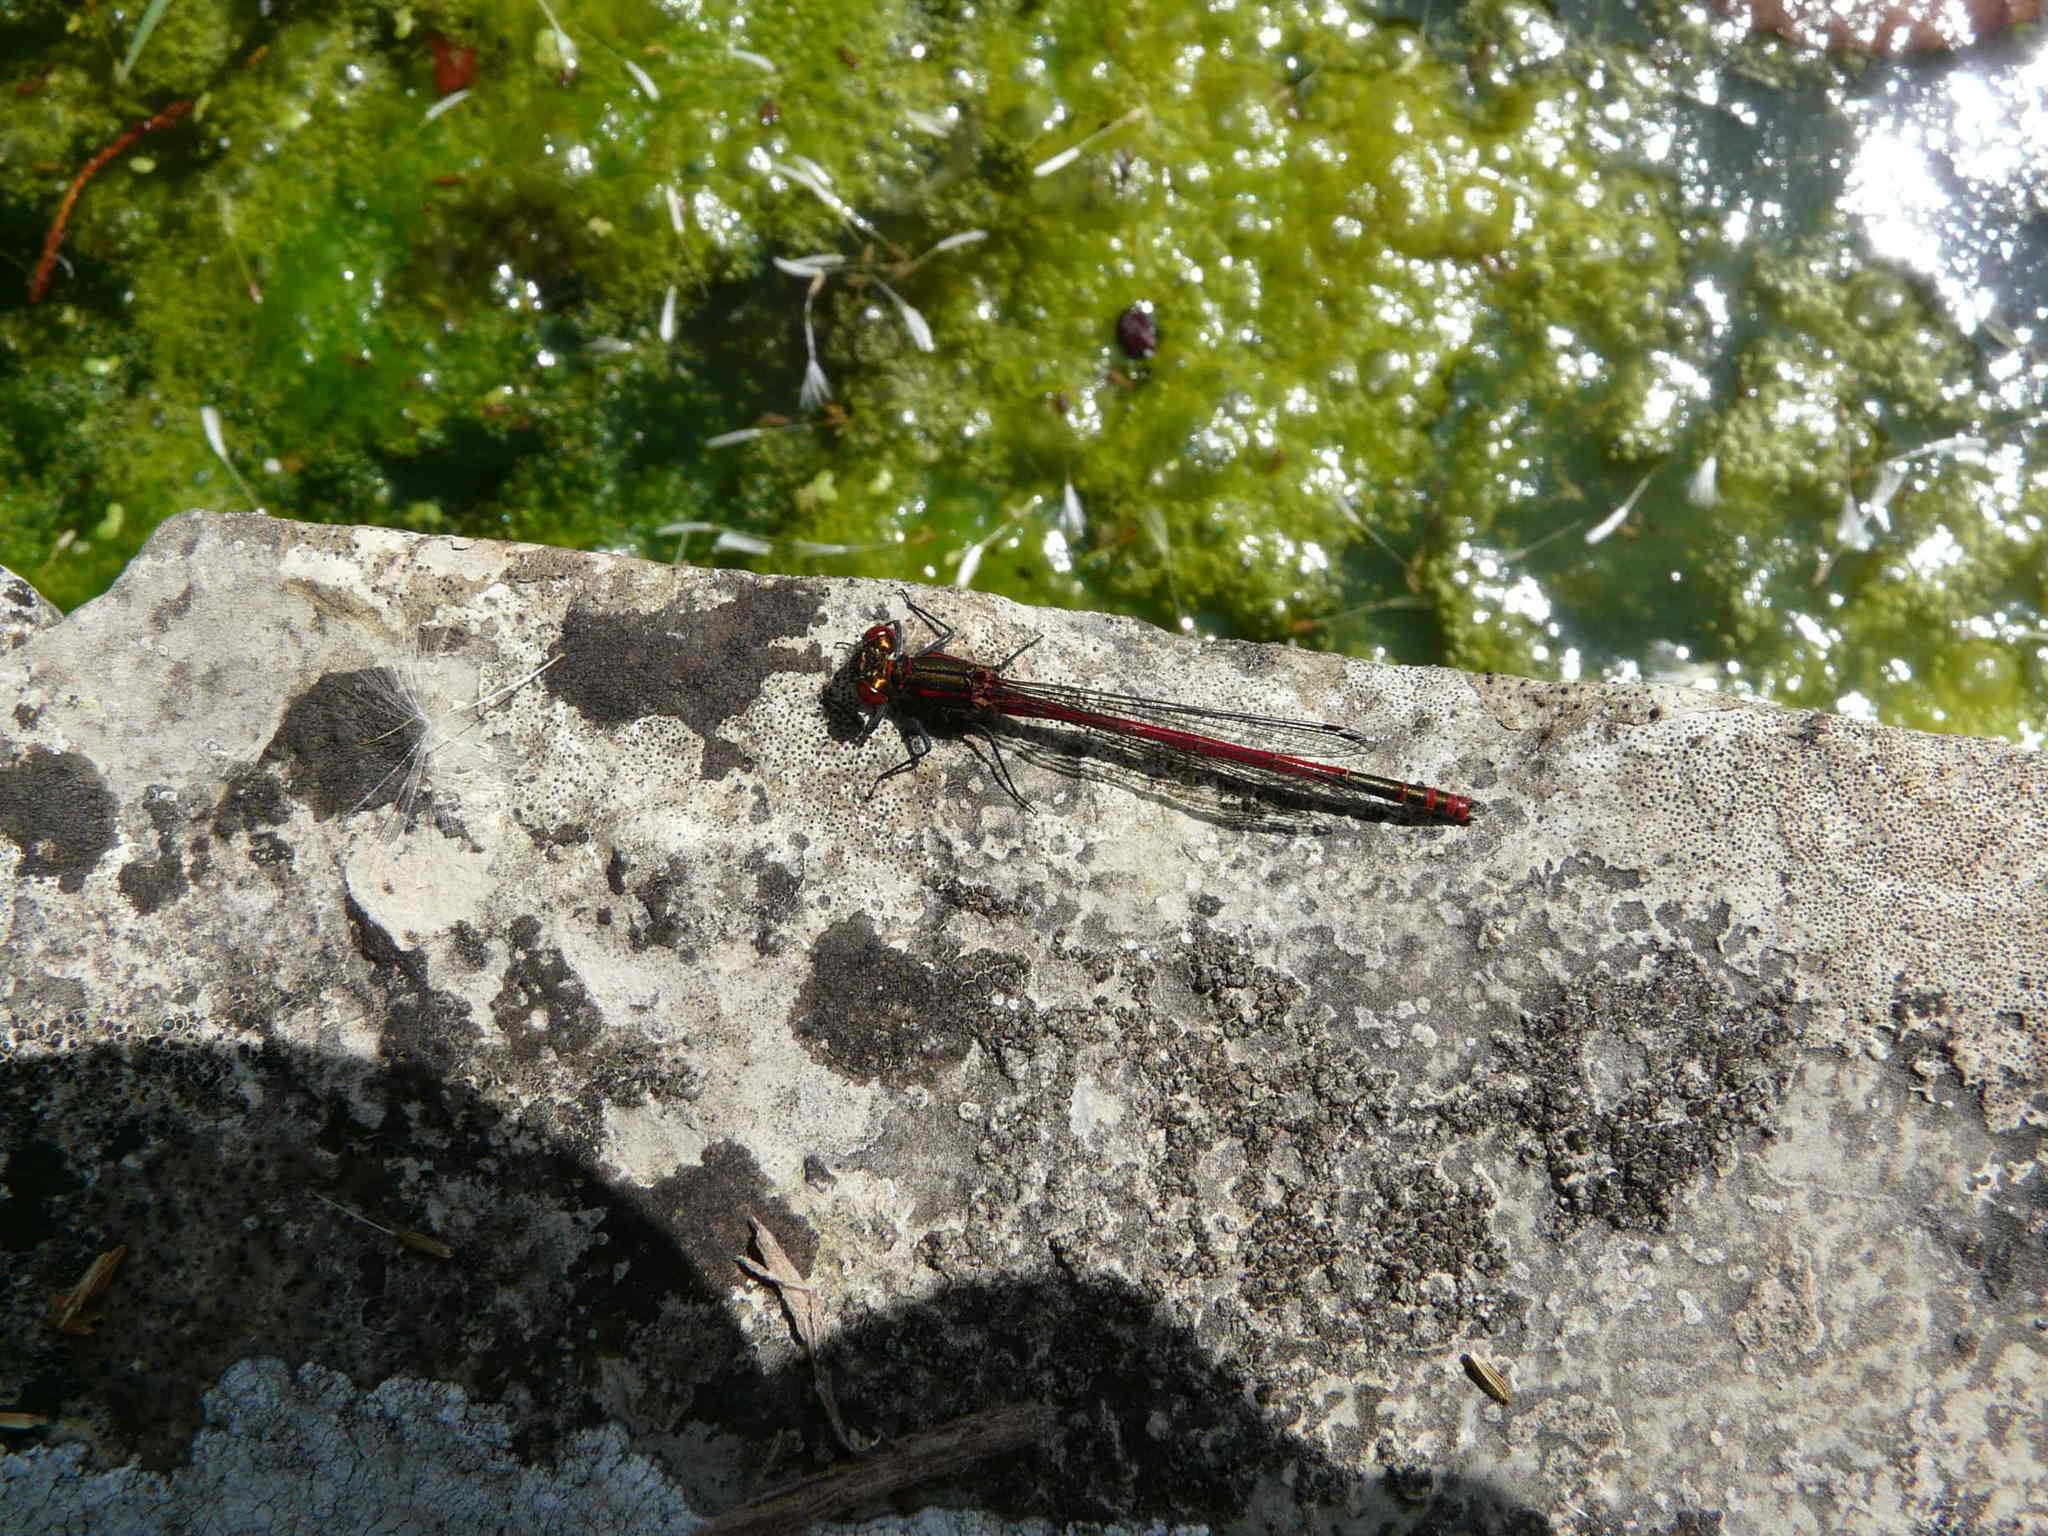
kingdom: Animalia
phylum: Arthropoda
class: Insecta
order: Odonata
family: Coenagrionidae
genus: Pyrrhosoma
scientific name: Pyrrhosoma nymphula
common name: Large red damsel
